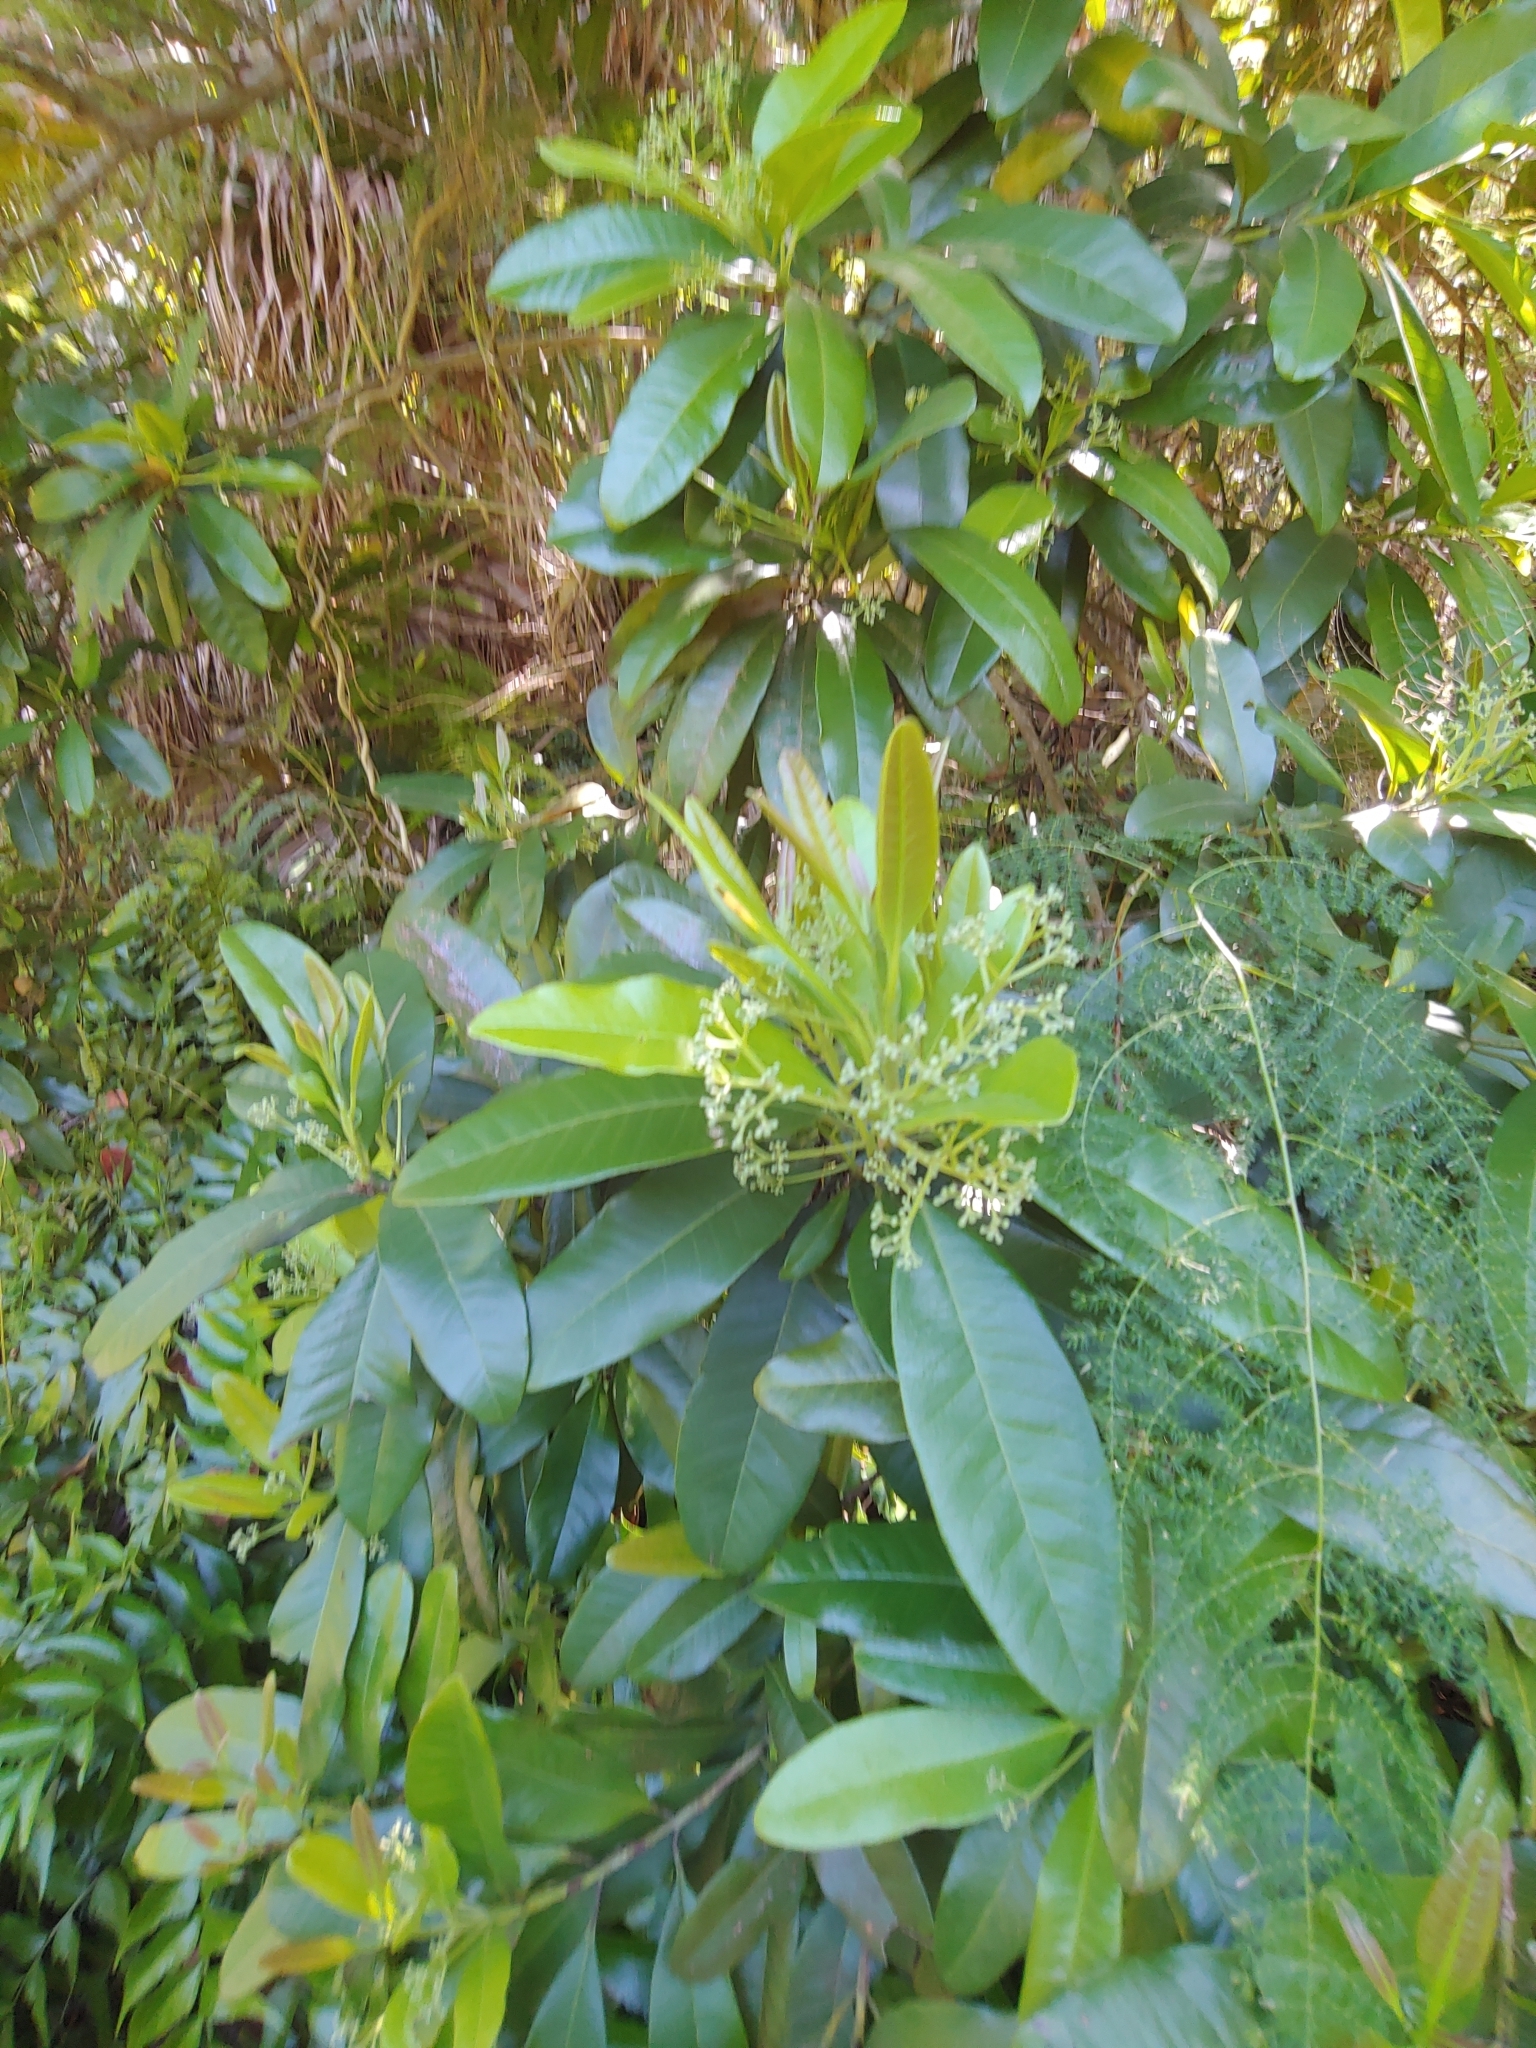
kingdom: Plantae
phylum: Tracheophyta
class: Magnoliopsida
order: Myrtales
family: Myrtaceae
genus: Pimenta
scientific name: Pimenta dioica
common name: Allspice
